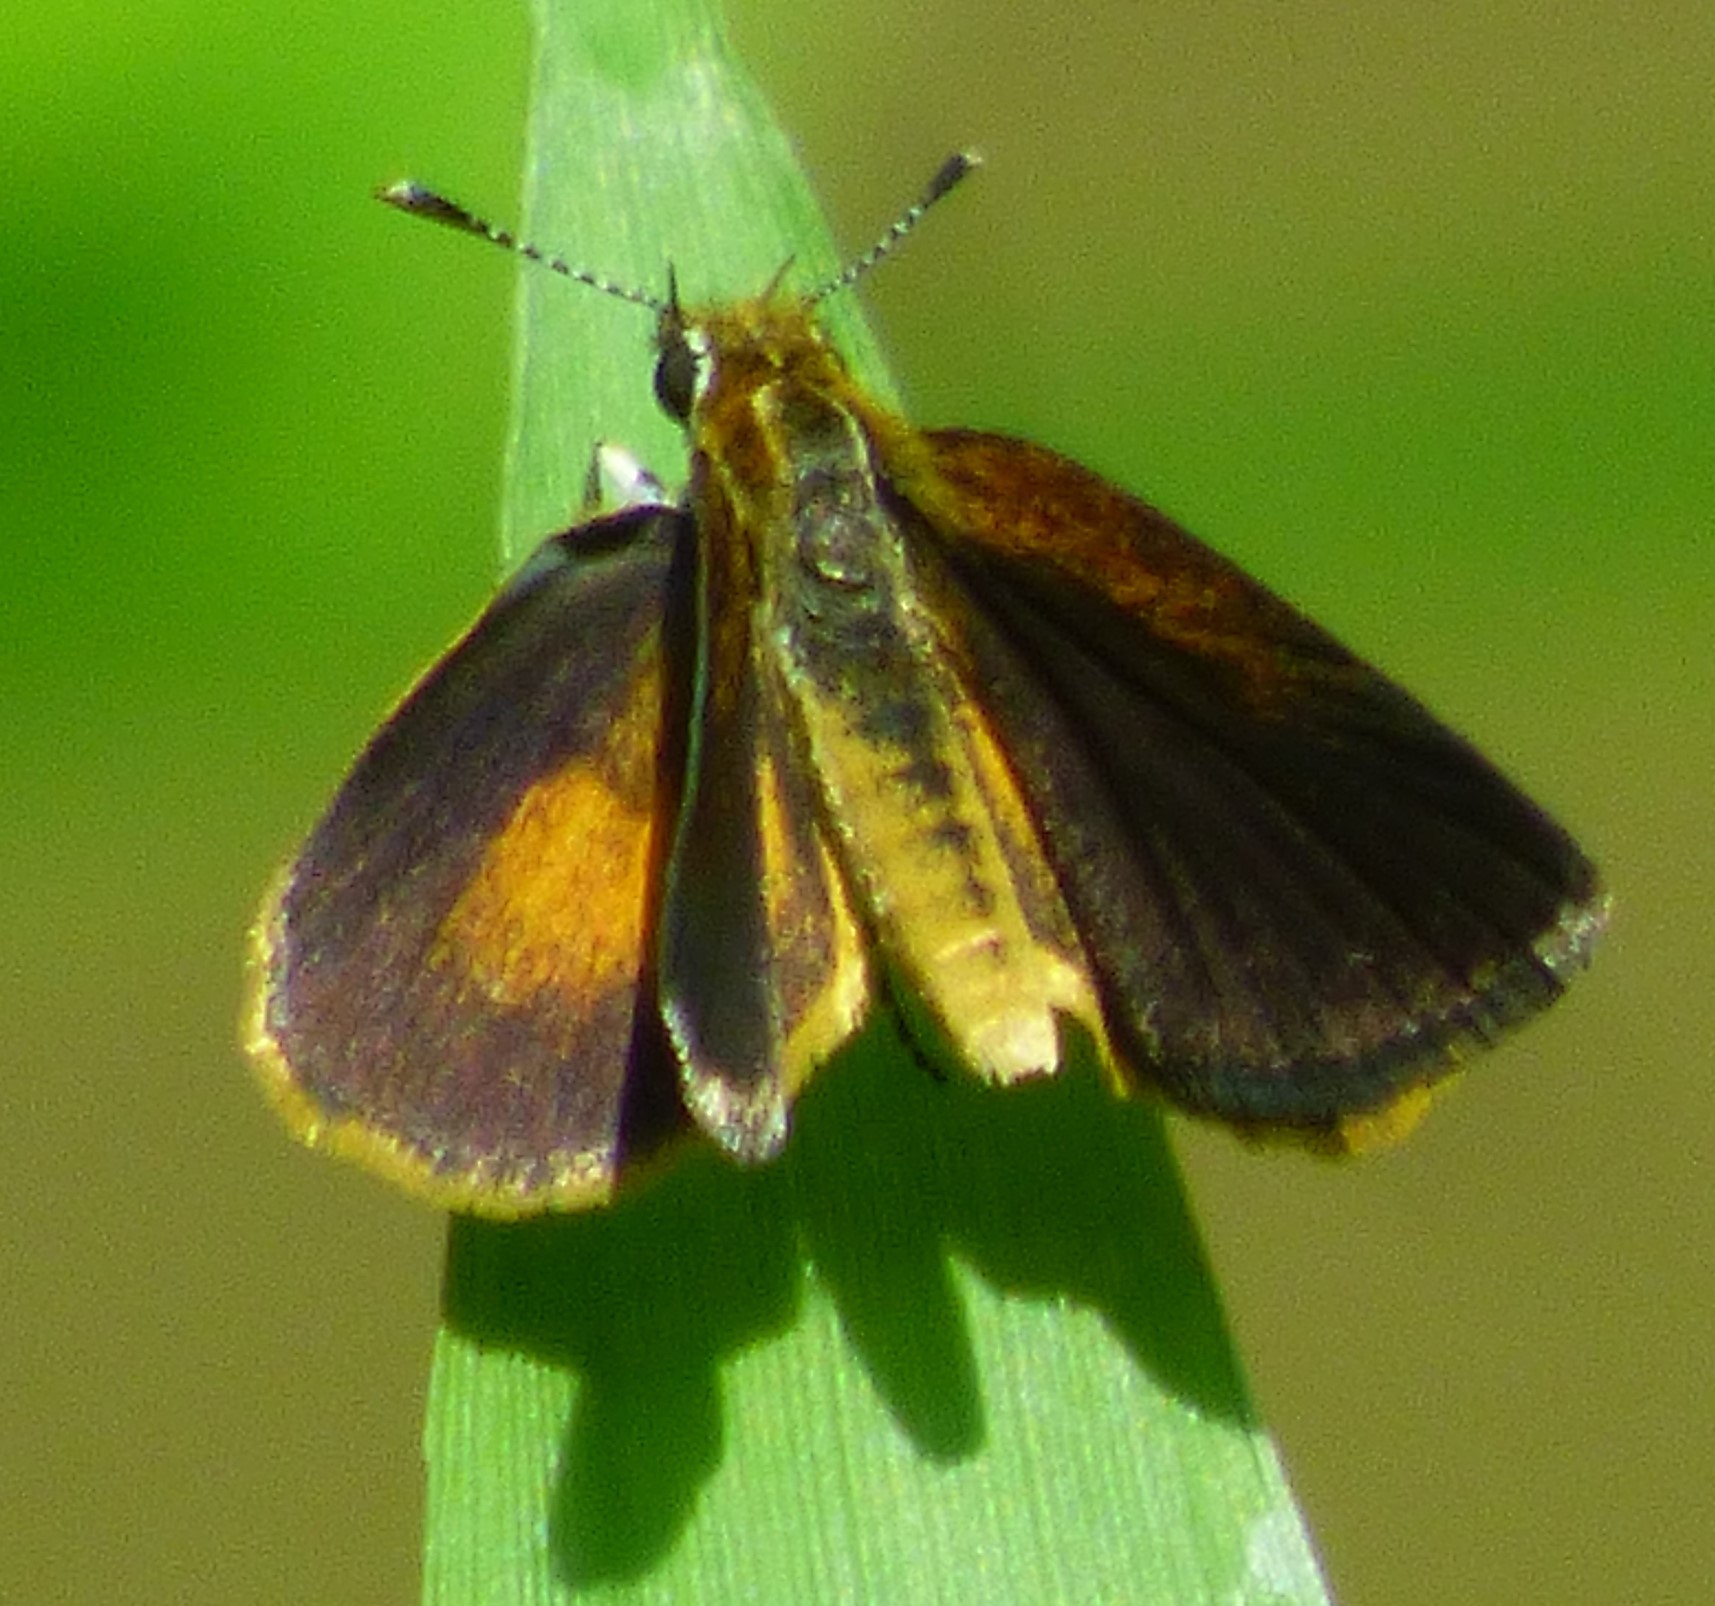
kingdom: Animalia
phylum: Arthropoda
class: Insecta
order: Lepidoptera
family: Hesperiidae
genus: Ancyloxypha
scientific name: Ancyloxypha numitor
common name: Least skipper
